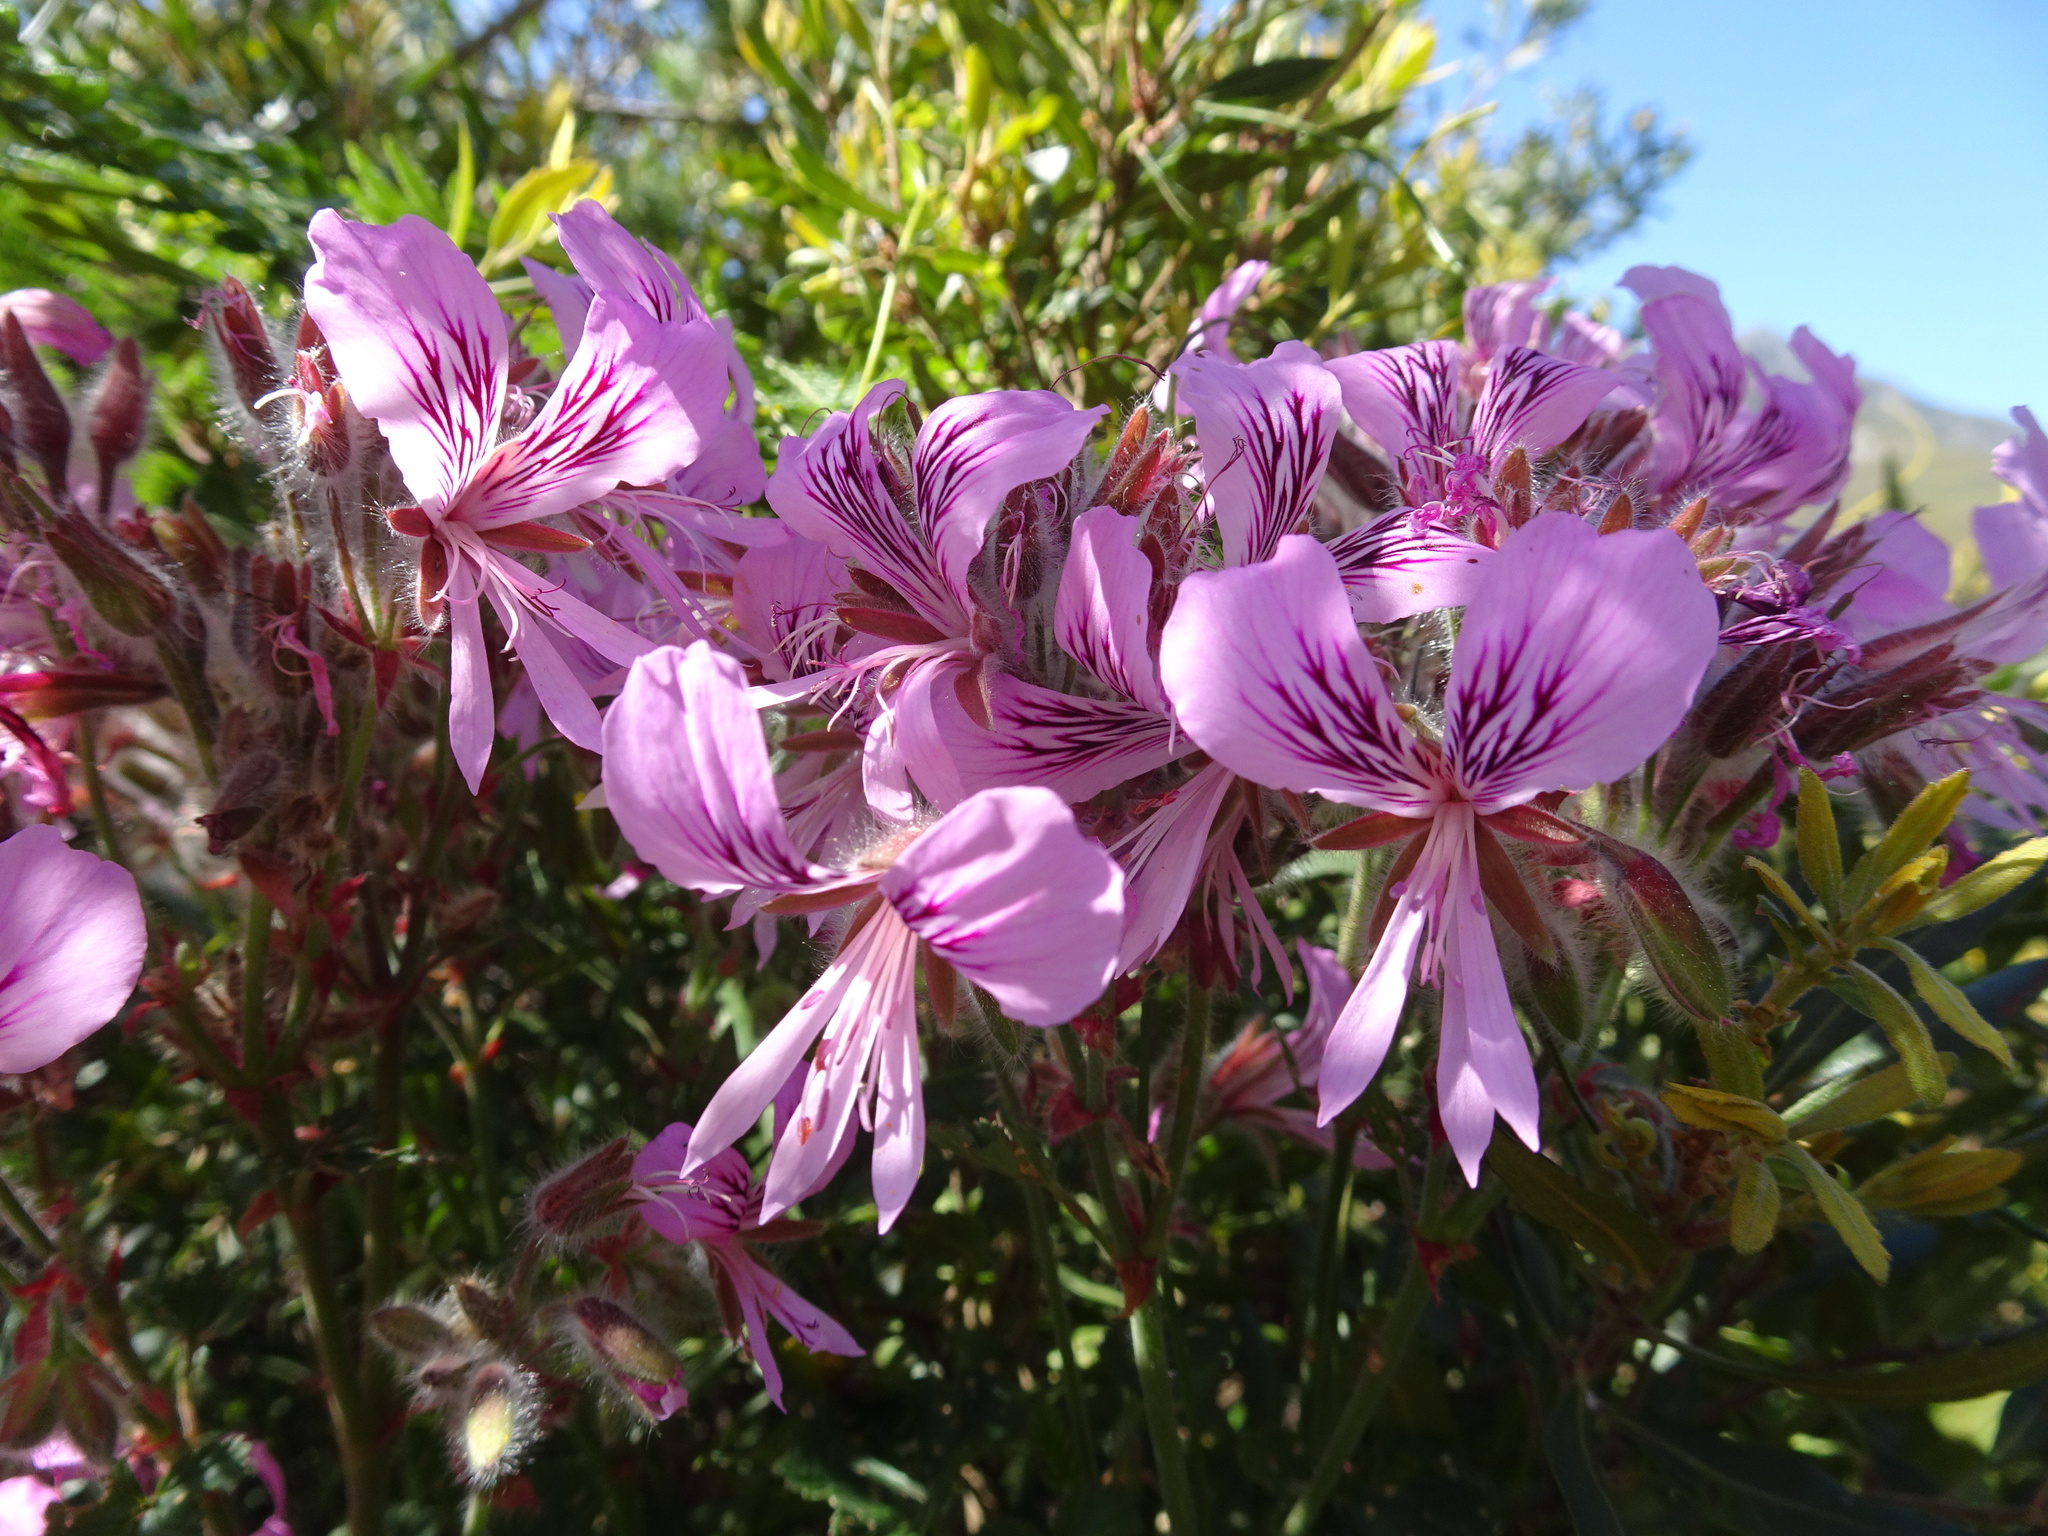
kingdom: Plantae
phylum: Tracheophyta
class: Magnoliopsida
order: Geraniales
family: Geraniaceae
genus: Pelargonium
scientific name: Pelargonium cordifolium
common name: Heart-leaf pelargonium
